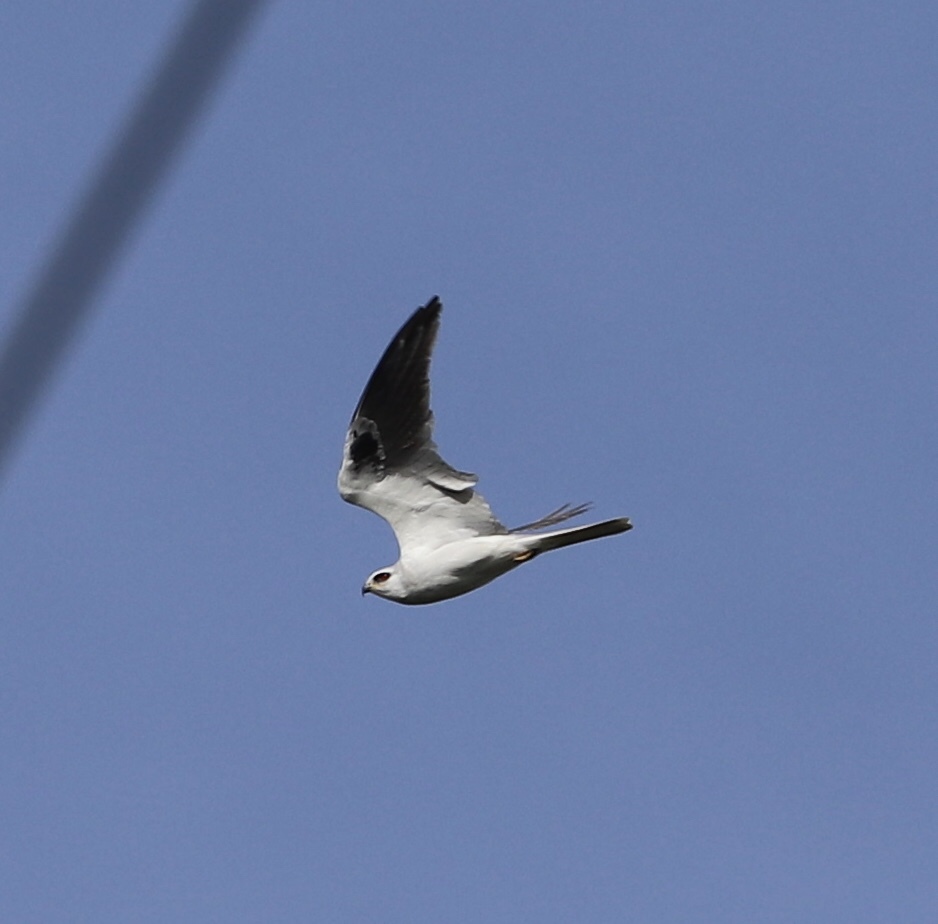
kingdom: Animalia
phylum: Chordata
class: Aves
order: Accipitriformes
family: Accipitridae
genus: Elanus
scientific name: Elanus leucurus
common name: White-tailed kite
